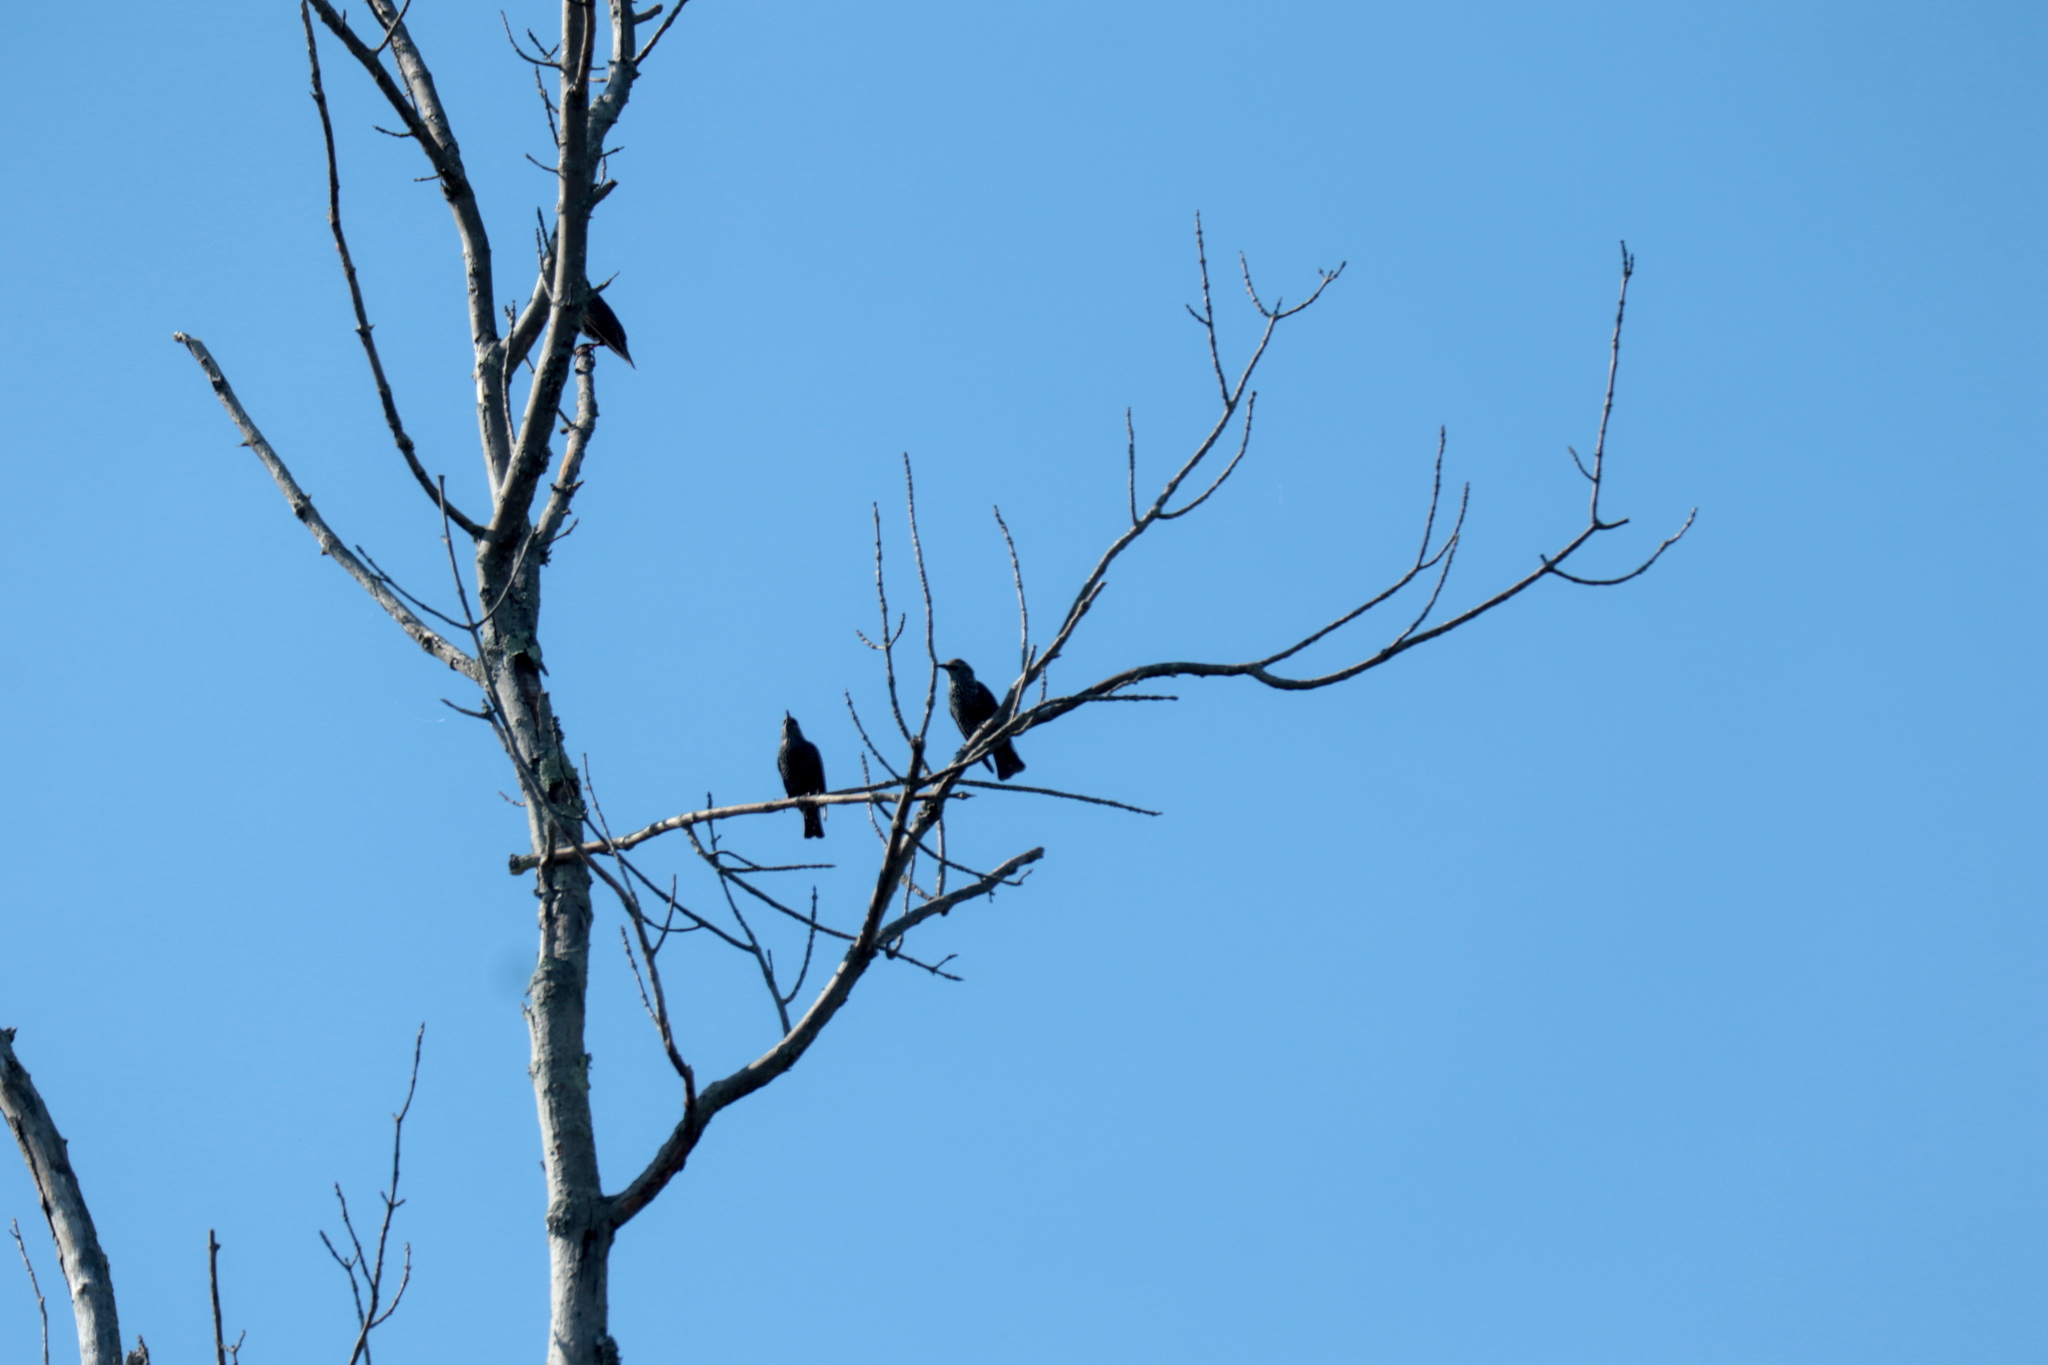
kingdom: Animalia
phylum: Chordata
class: Aves
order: Passeriformes
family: Sturnidae
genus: Sturnus
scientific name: Sturnus vulgaris
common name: Common starling
